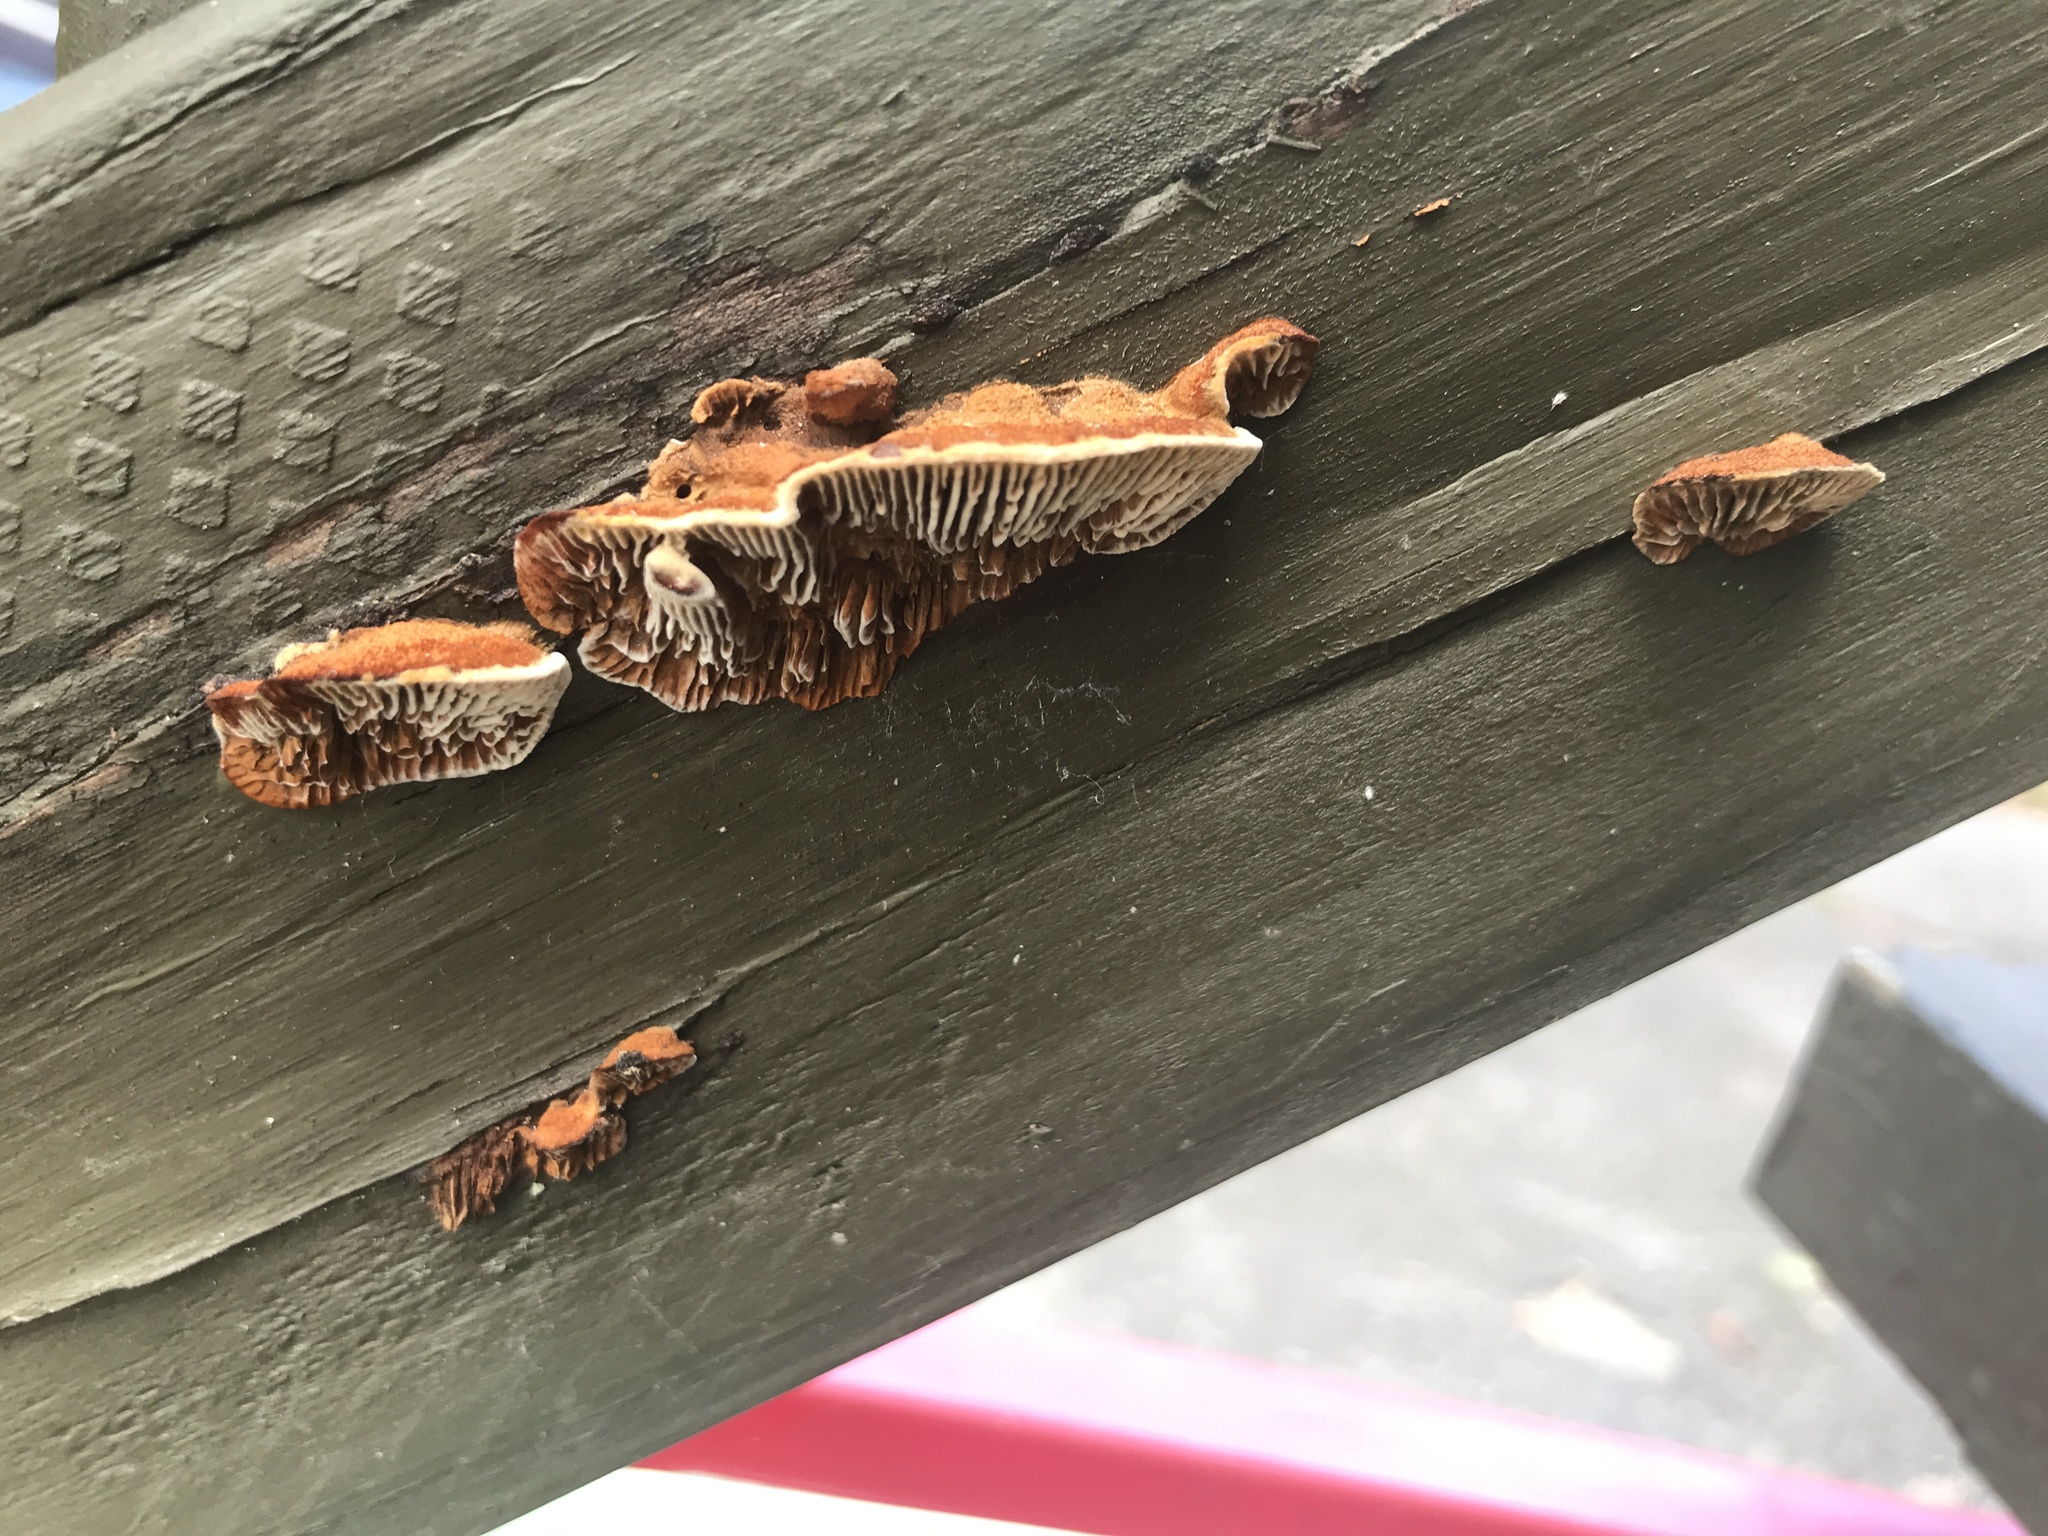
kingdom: Fungi
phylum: Basidiomycota
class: Agaricomycetes
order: Gloeophyllales
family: Gloeophyllaceae
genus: Gloeophyllum
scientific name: Gloeophyllum sepiarium
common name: Conifer mazegill
